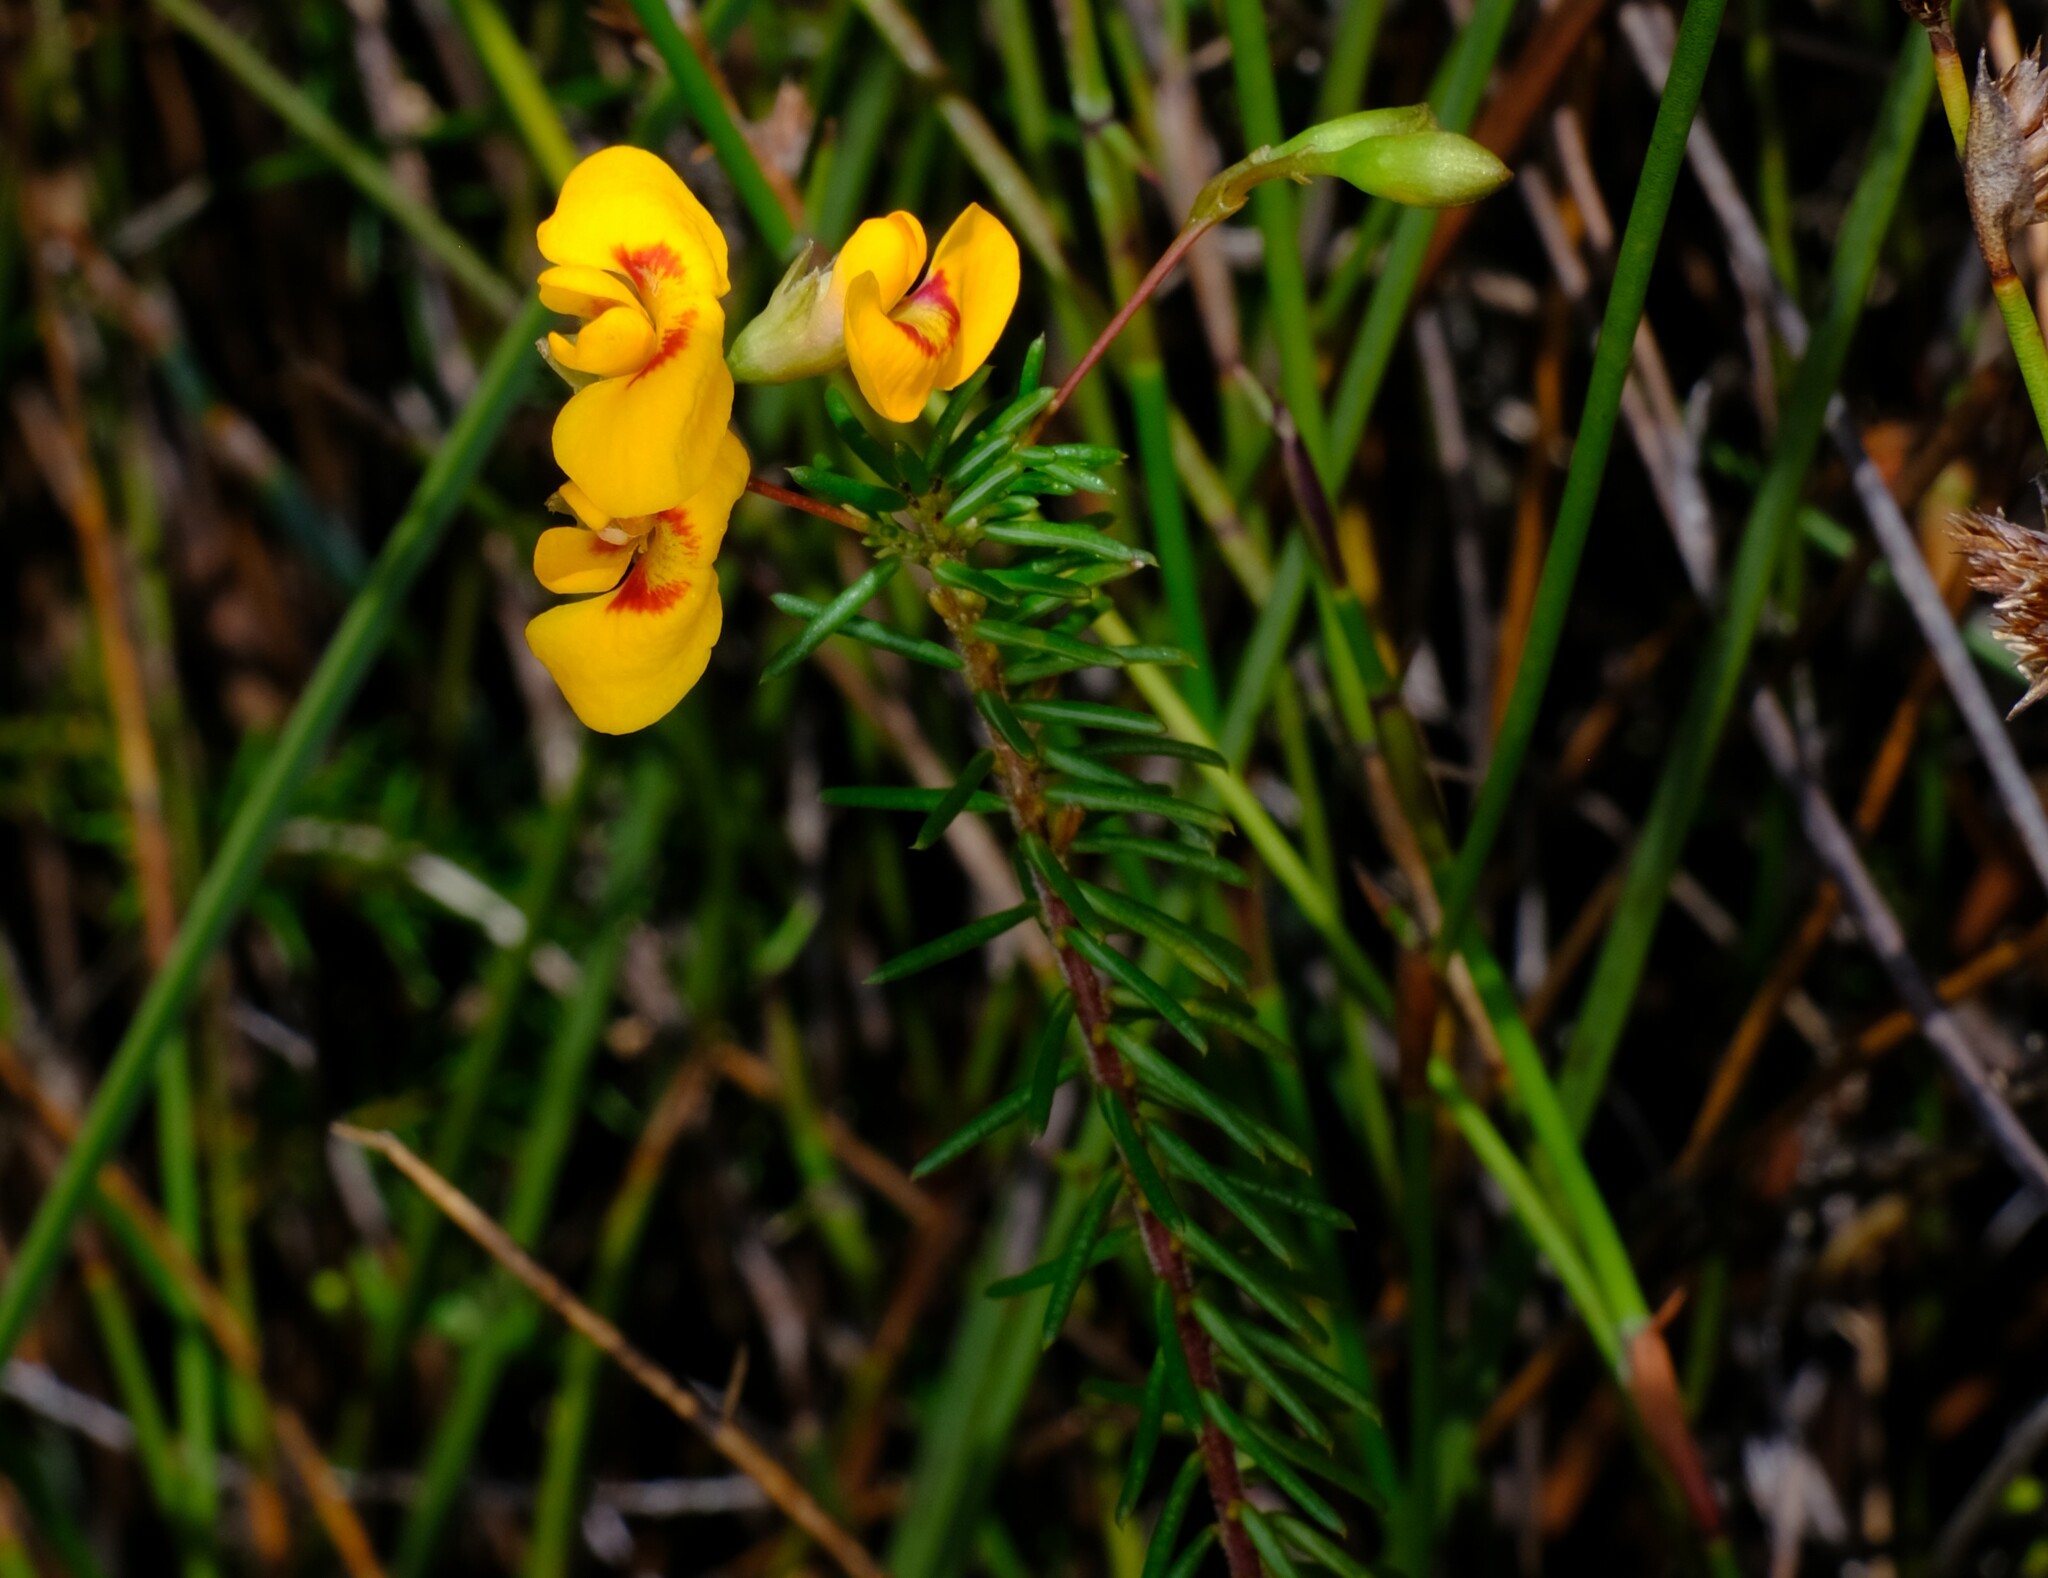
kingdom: Plantae
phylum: Tracheophyta
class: Magnoliopsida
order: Fabales
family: Fabaceae
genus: Dillwynia
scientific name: Dillwynia retorta
